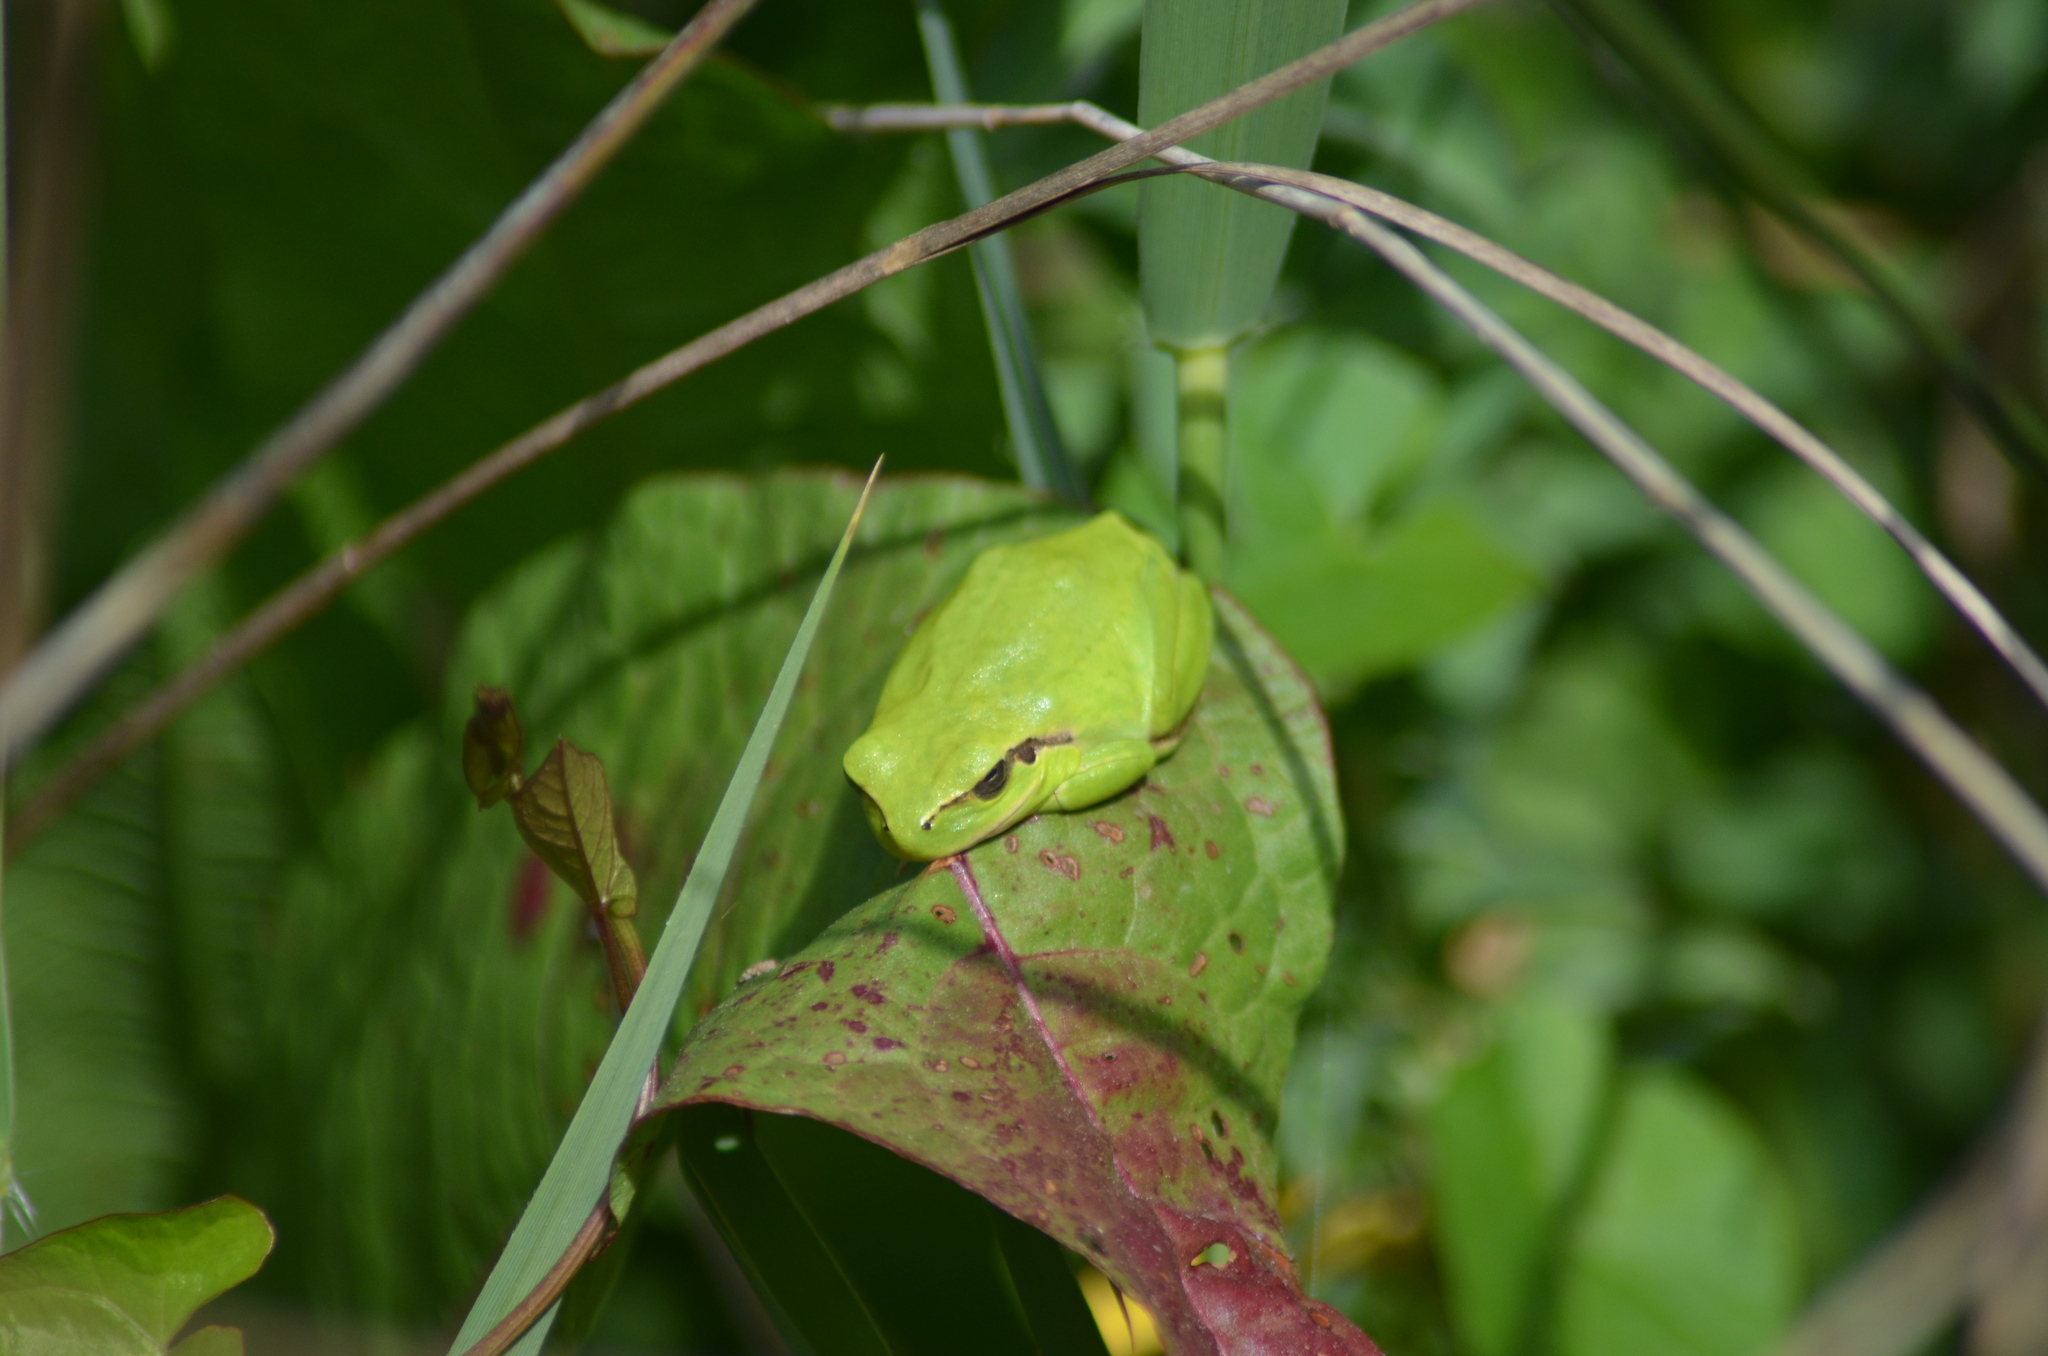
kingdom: Animalia
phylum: Chordata
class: Amphibia
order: Anura
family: Hylidae
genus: Hyla
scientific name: Hyla meridionalis
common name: Stripeless tree frog
